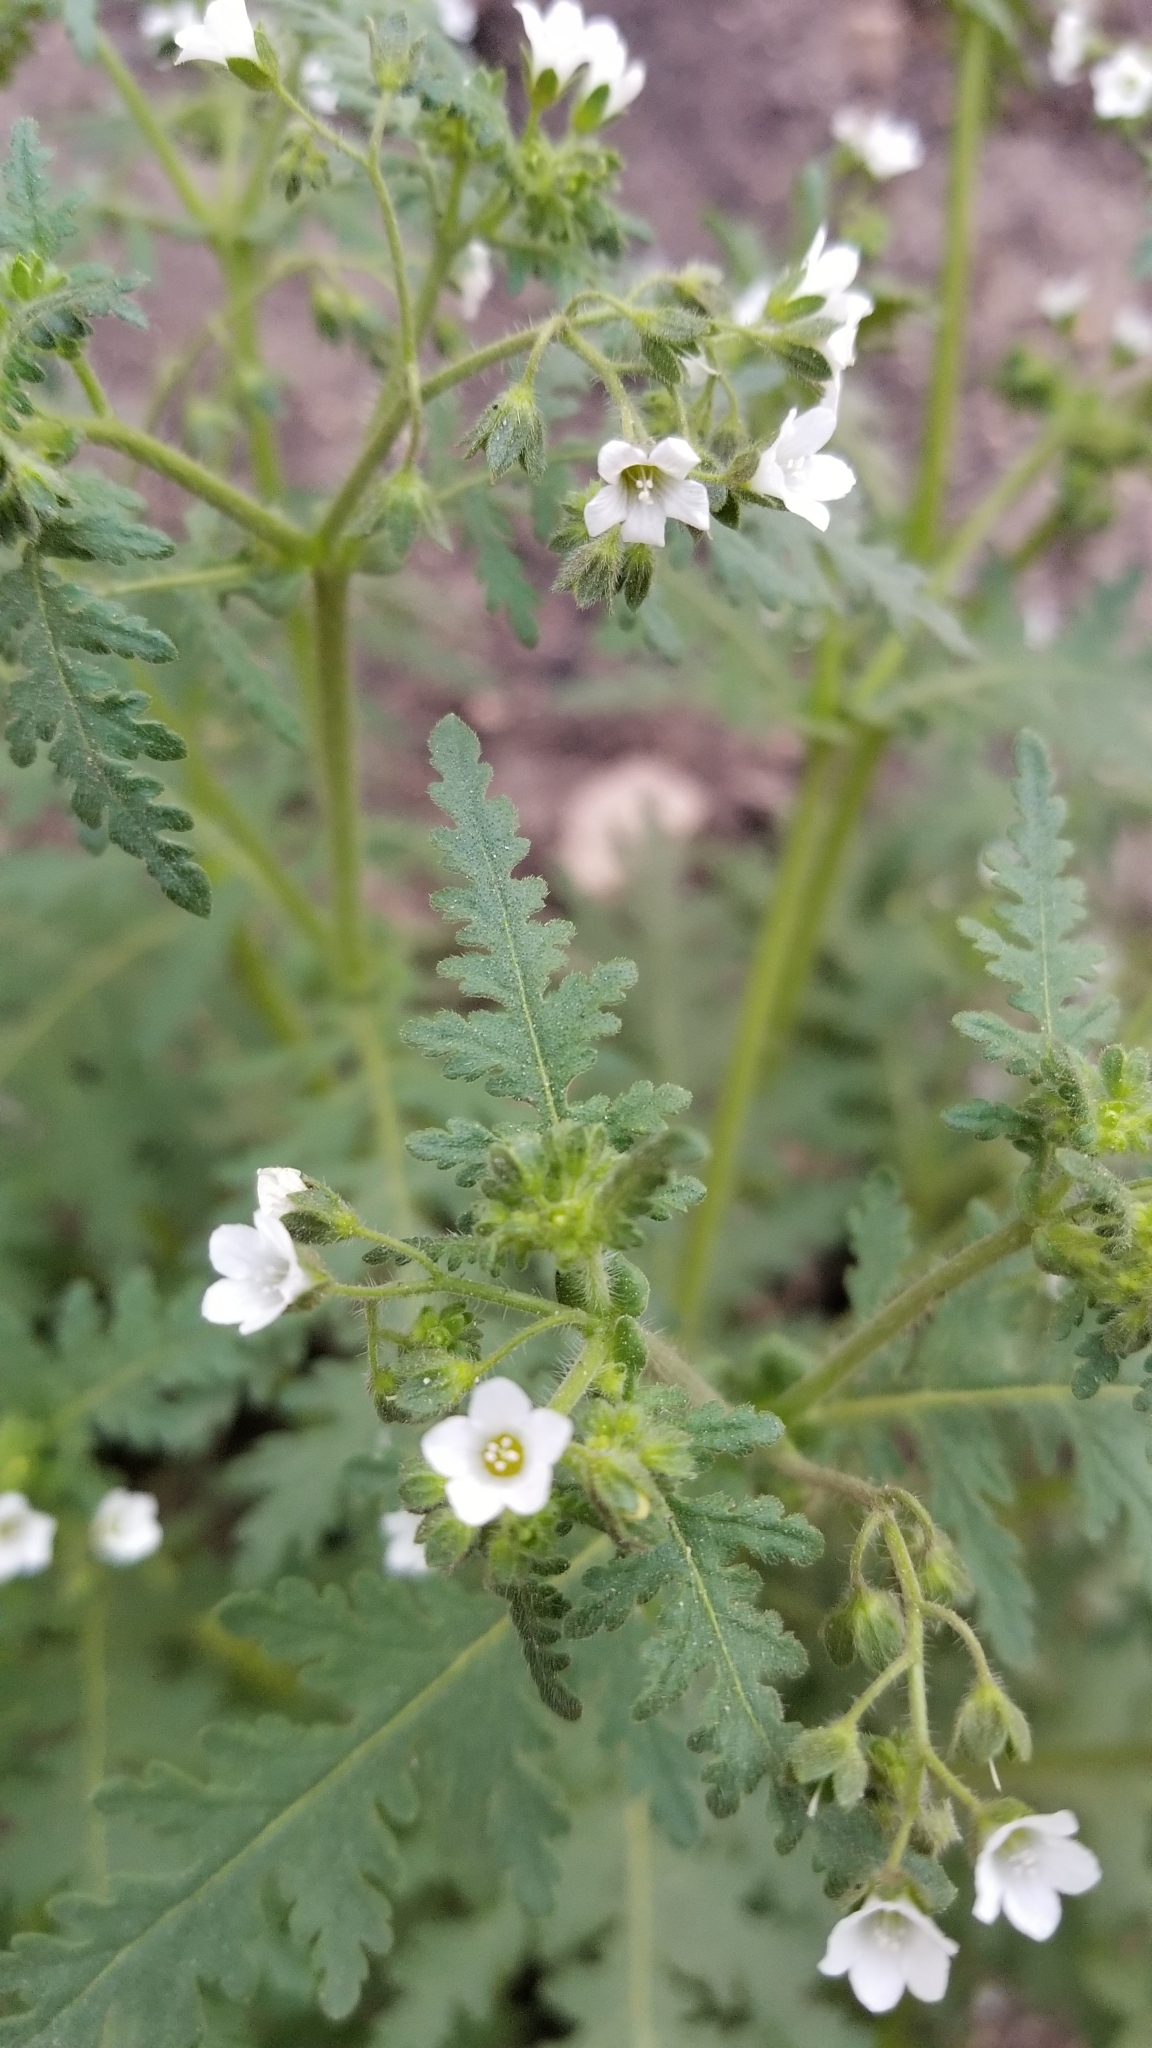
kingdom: Plantae
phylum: Tracheophyta
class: Magnoliopsida
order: Boraginales
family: Hydrophyllaceae
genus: Eucrypta
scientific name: Eucrypta chrysanthemifolia
